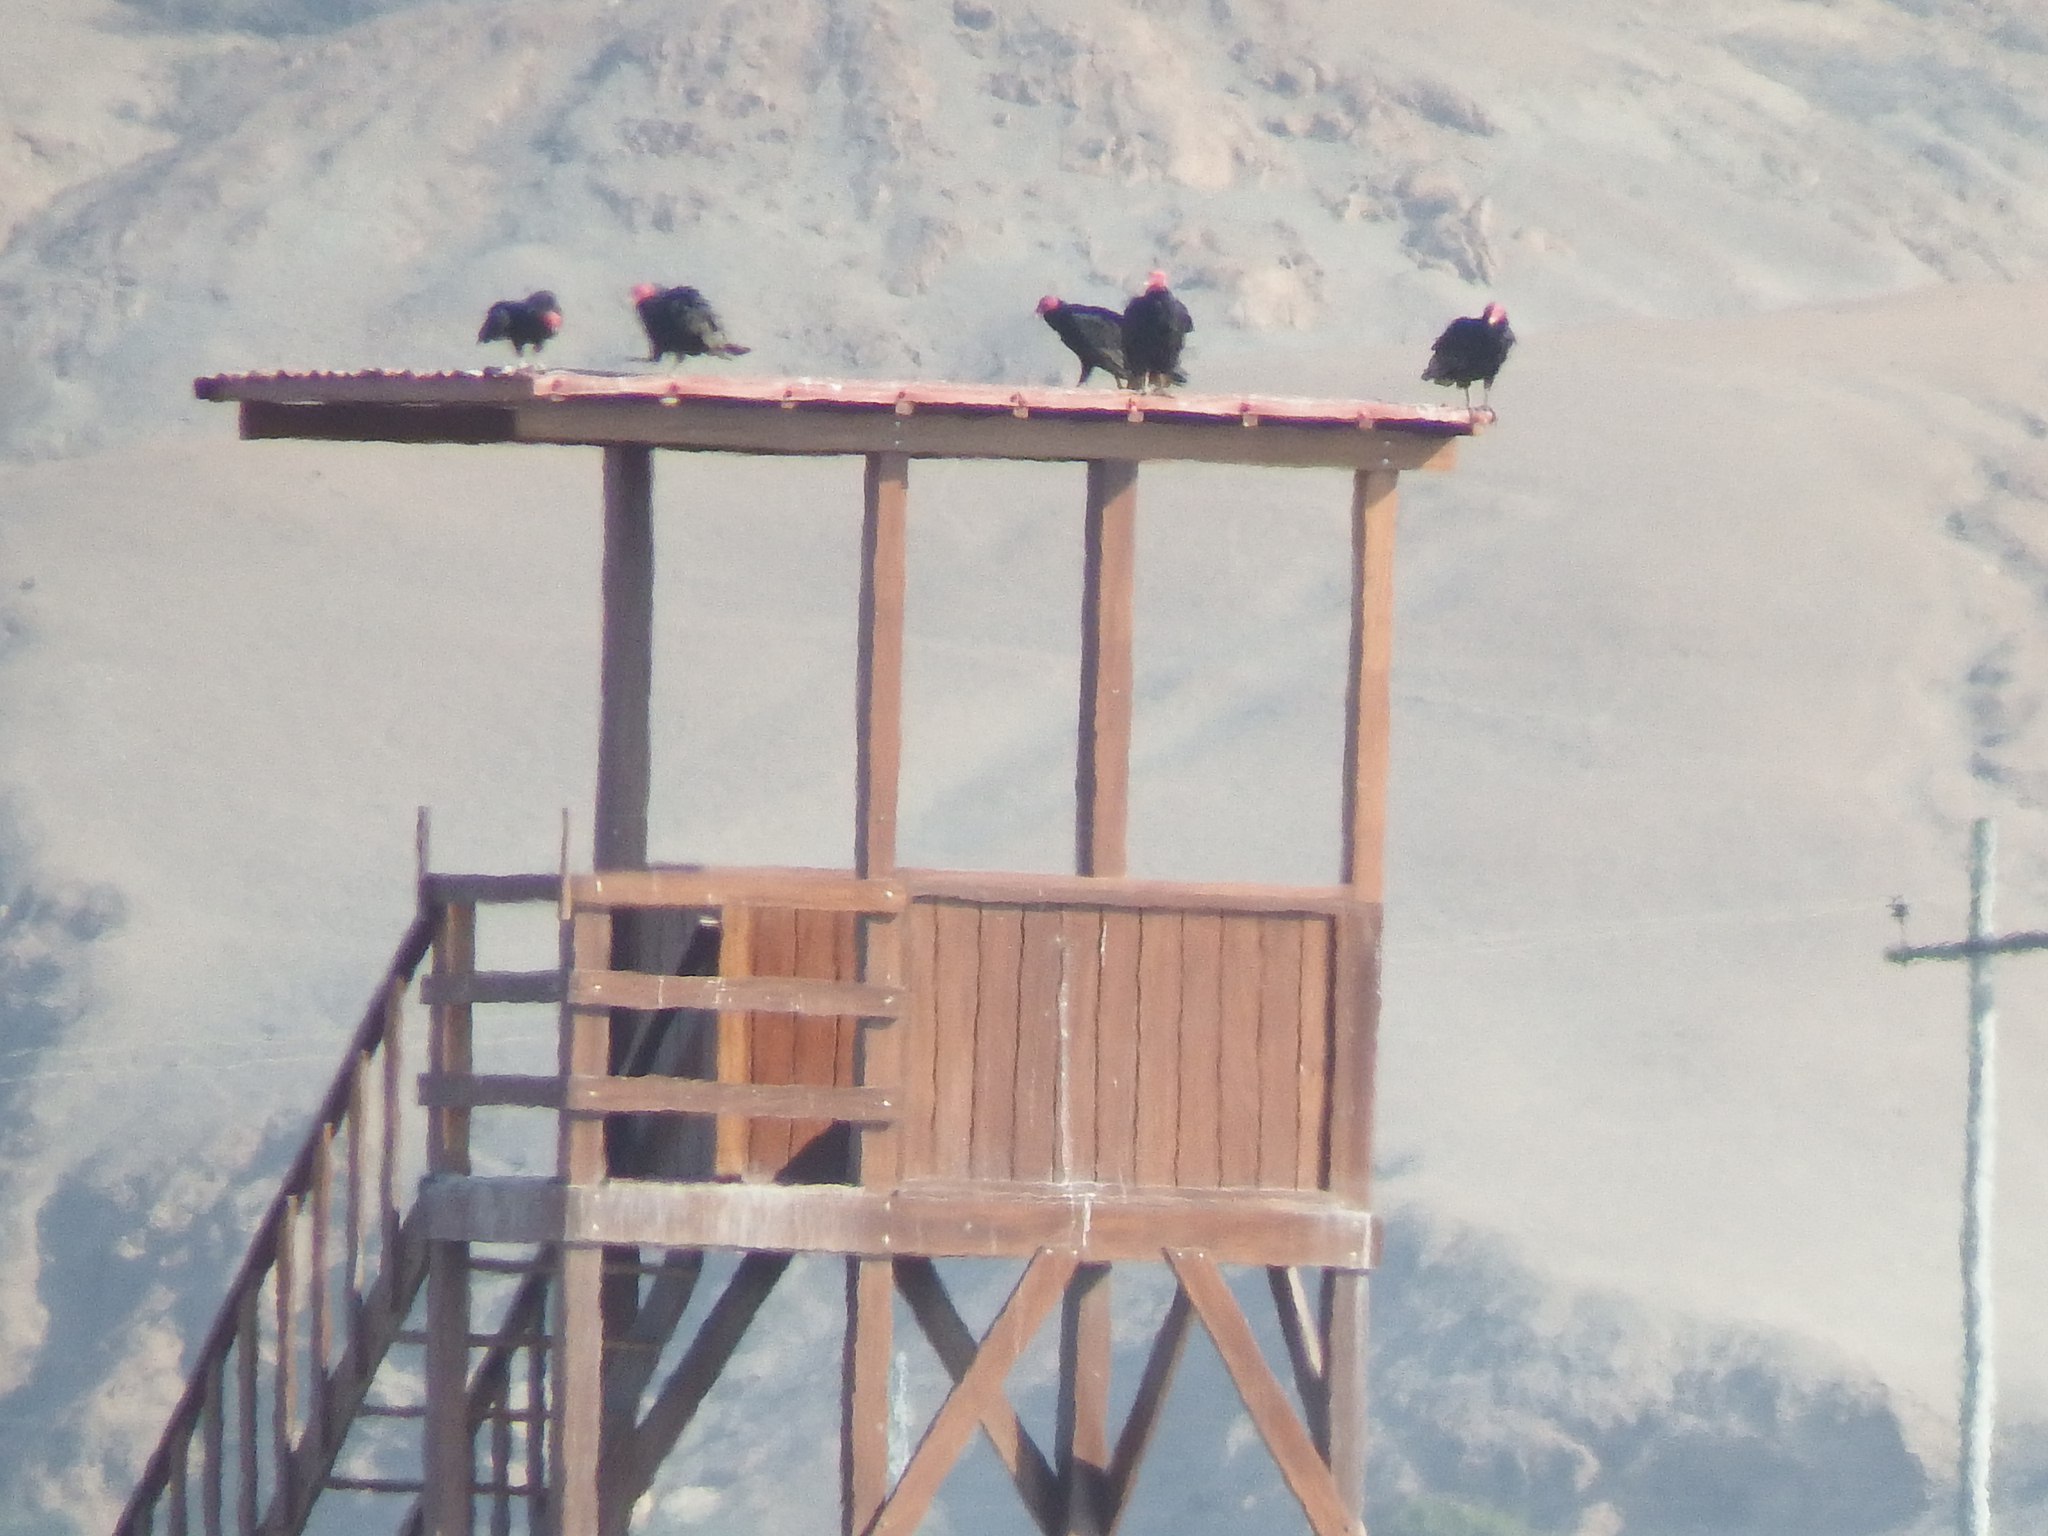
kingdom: Animalia
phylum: Chordata
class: Aves
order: Accipitriformes
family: Cathartidae
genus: Cathartes
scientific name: Cathartes aura
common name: Turkey vulture
